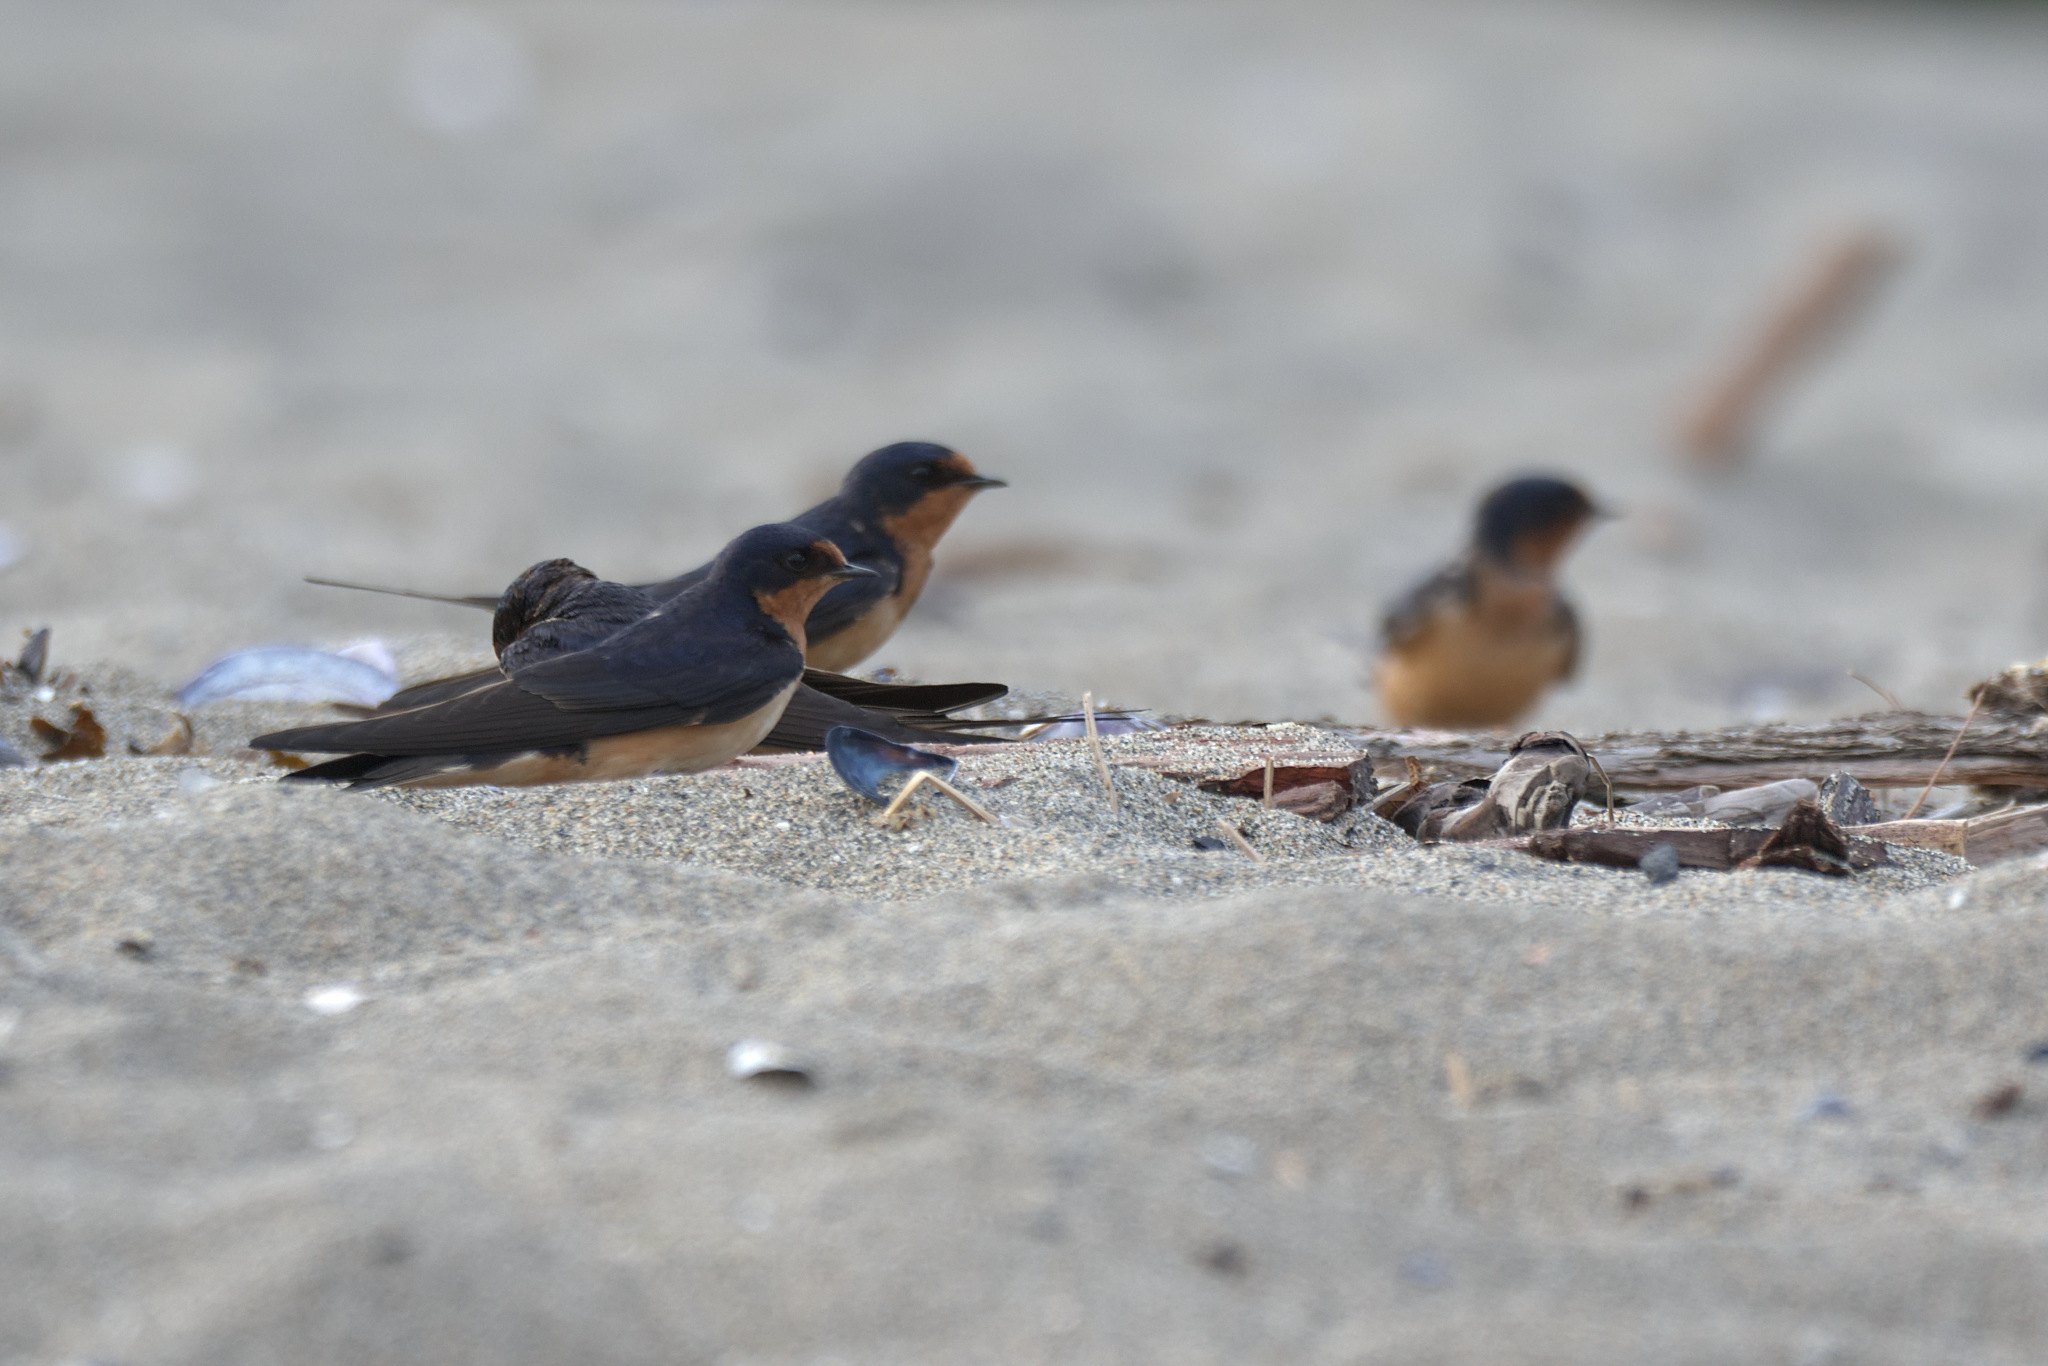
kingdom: Animalia
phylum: Chordata
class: Aves
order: Passeriformes
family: Hirundinidae
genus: Hirundo
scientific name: Hirundo rustica
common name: Barn swallow
